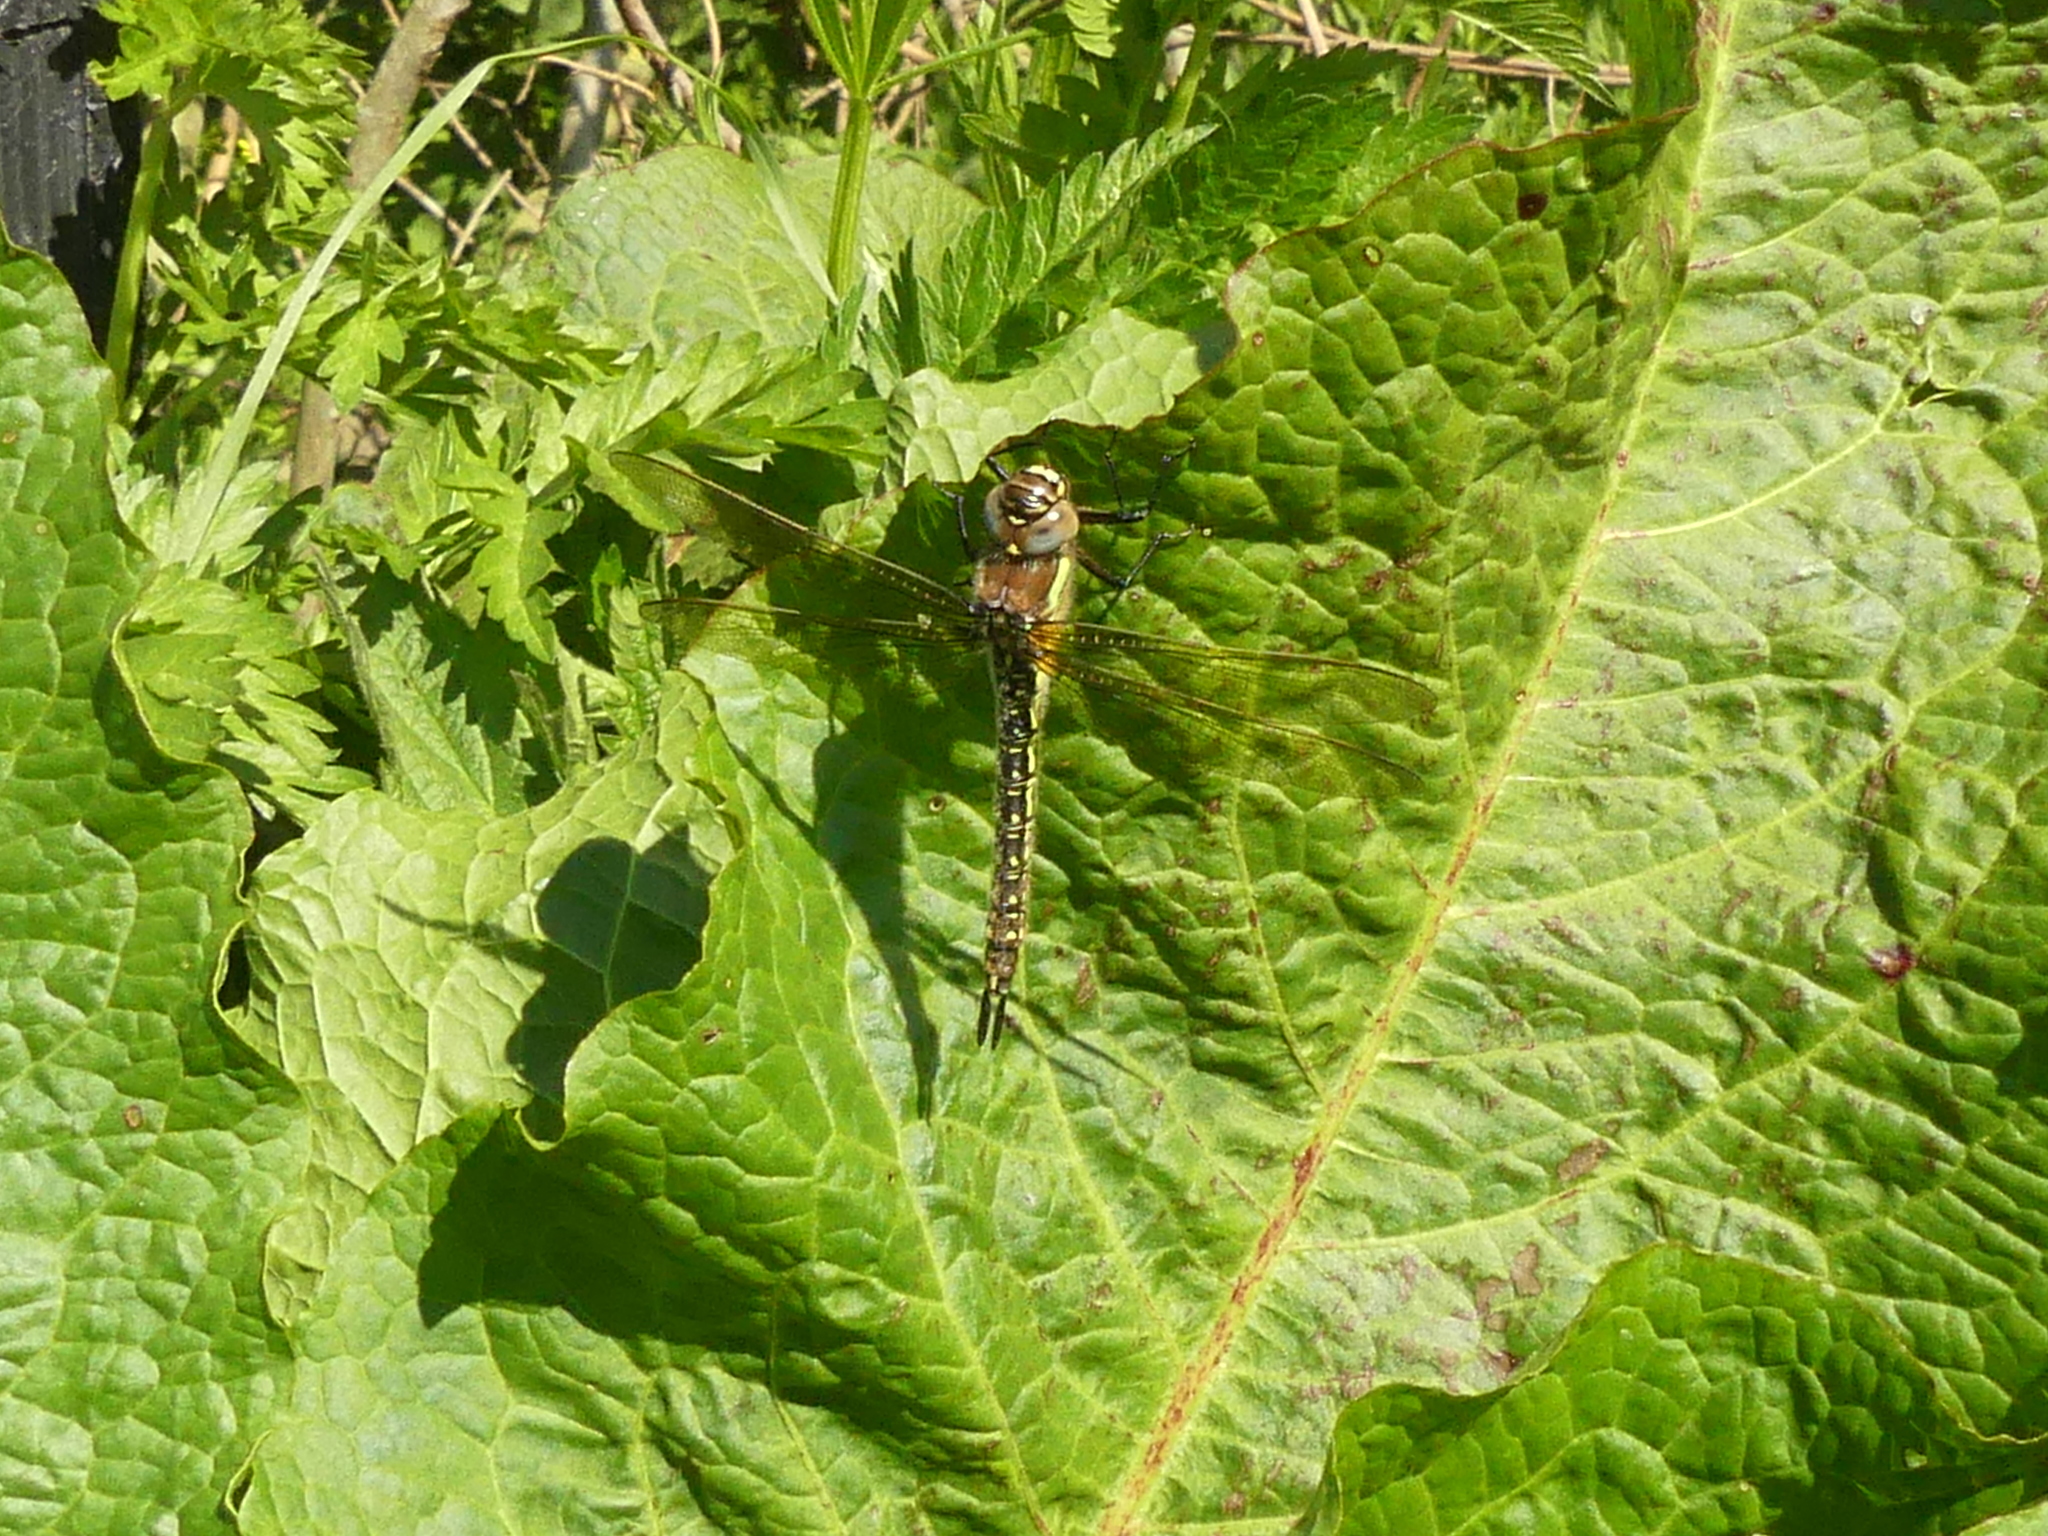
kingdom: Animalia
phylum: Arthropoda
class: Insecta
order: Odonata
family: Aeshnidae
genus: Brachytron
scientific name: Brachytron pratense
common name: Hairy hawker
